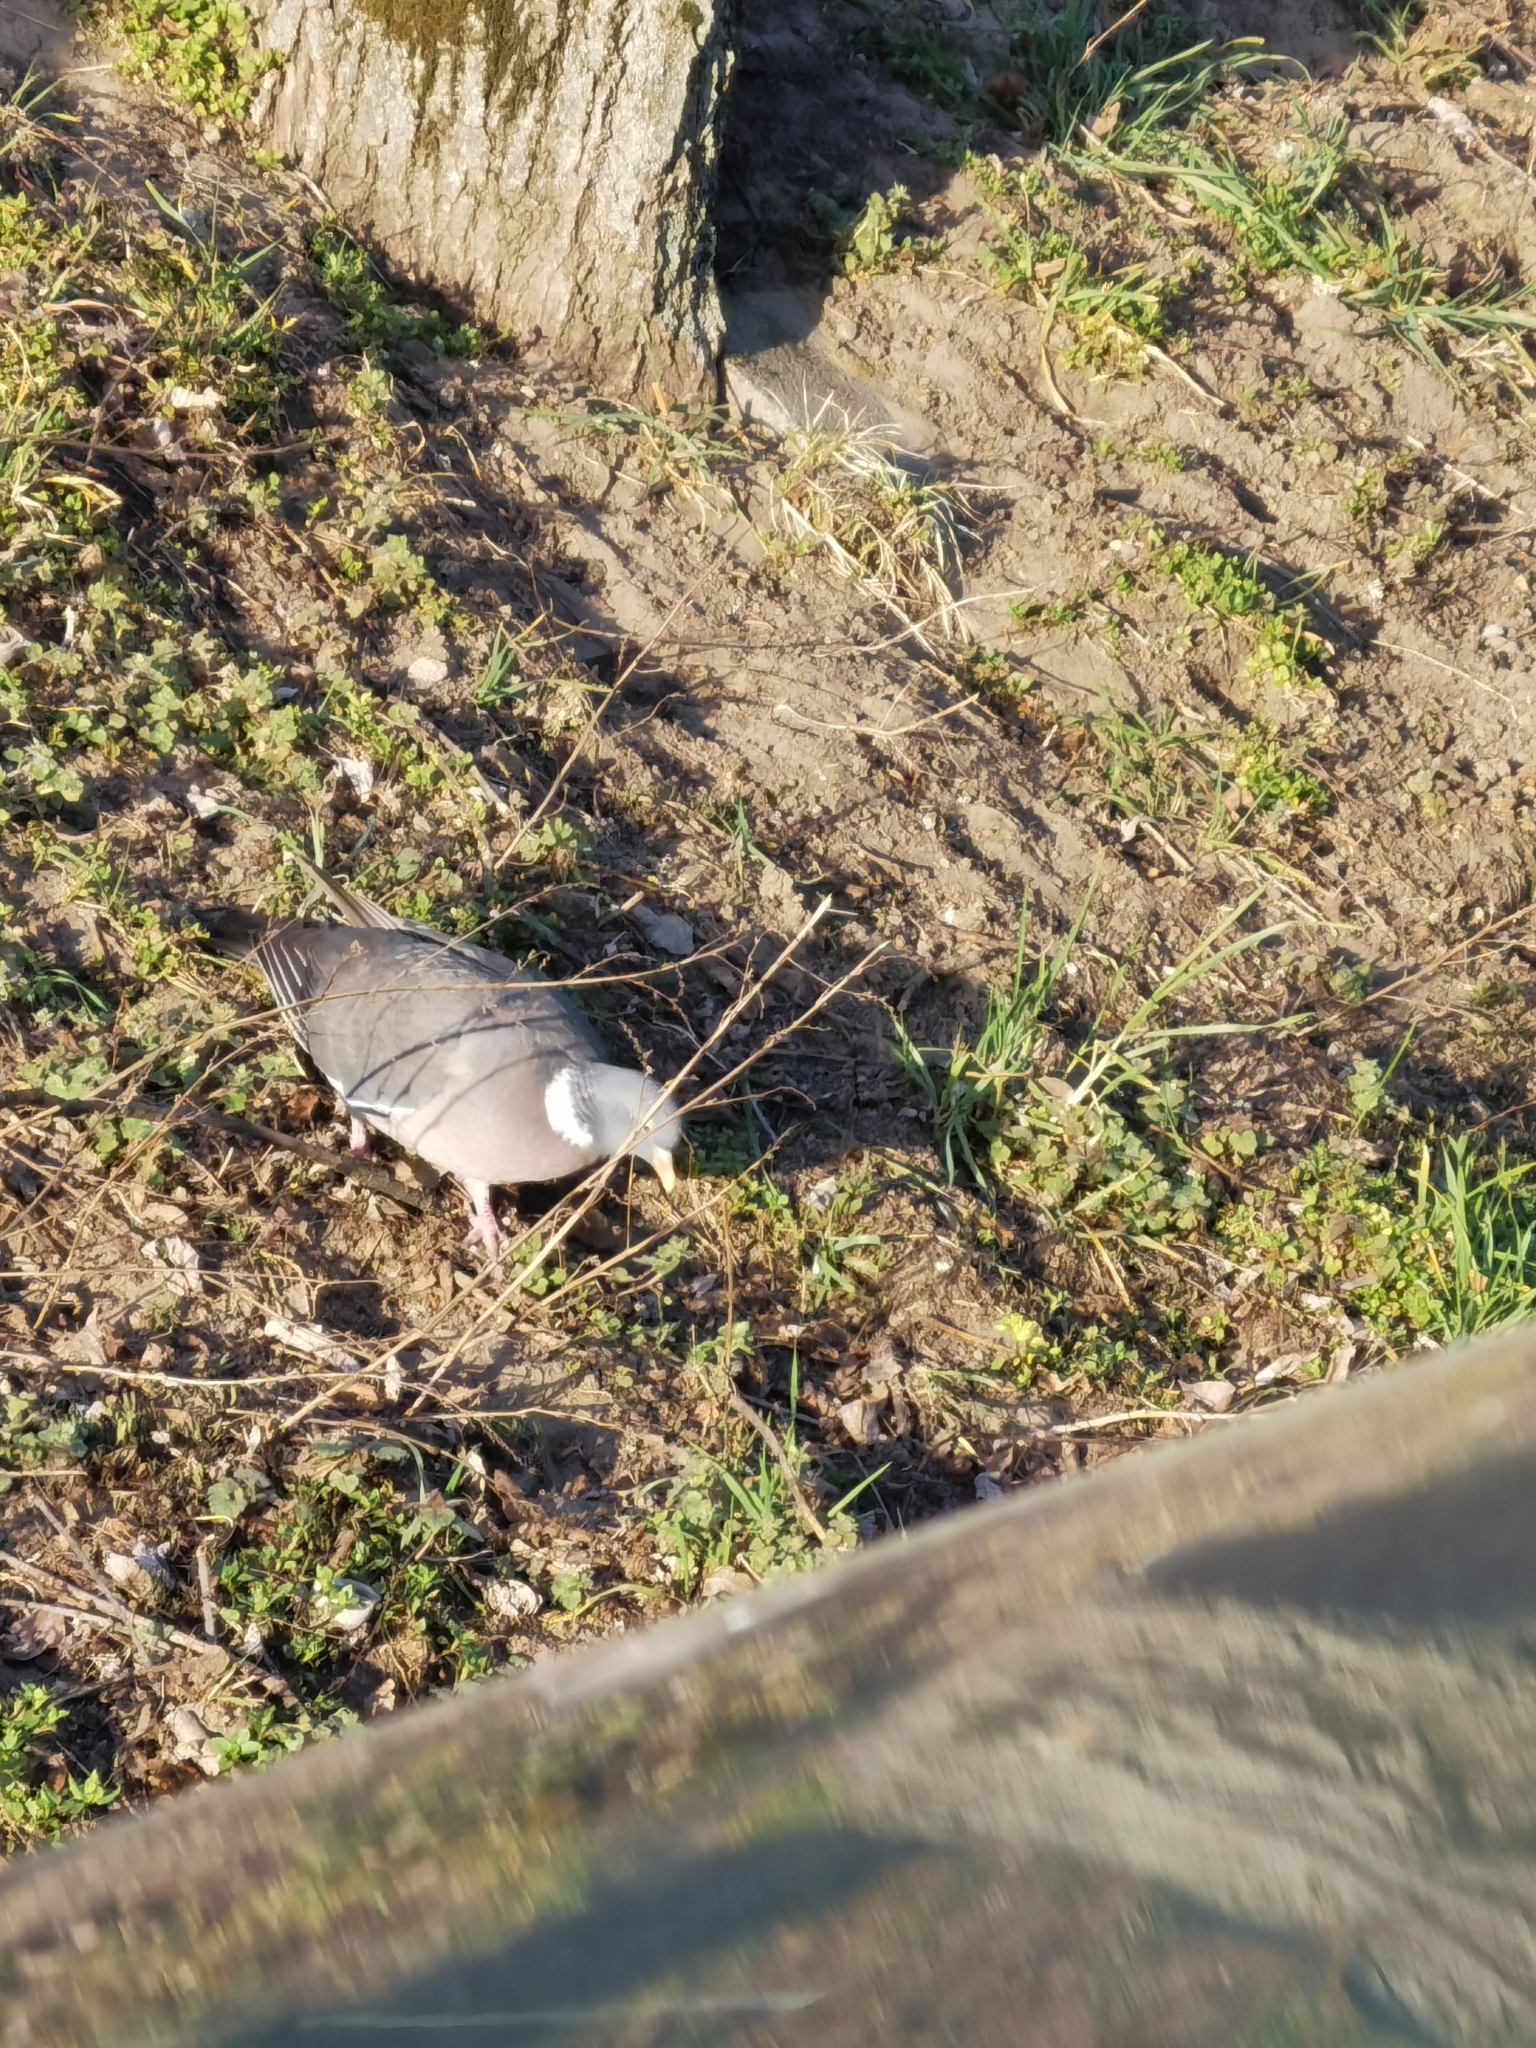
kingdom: Animalia
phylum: Chordata
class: Aves
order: Columbiformes
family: Columbidae
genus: Columba
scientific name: Columba palumbus
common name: Common wood pigeon
